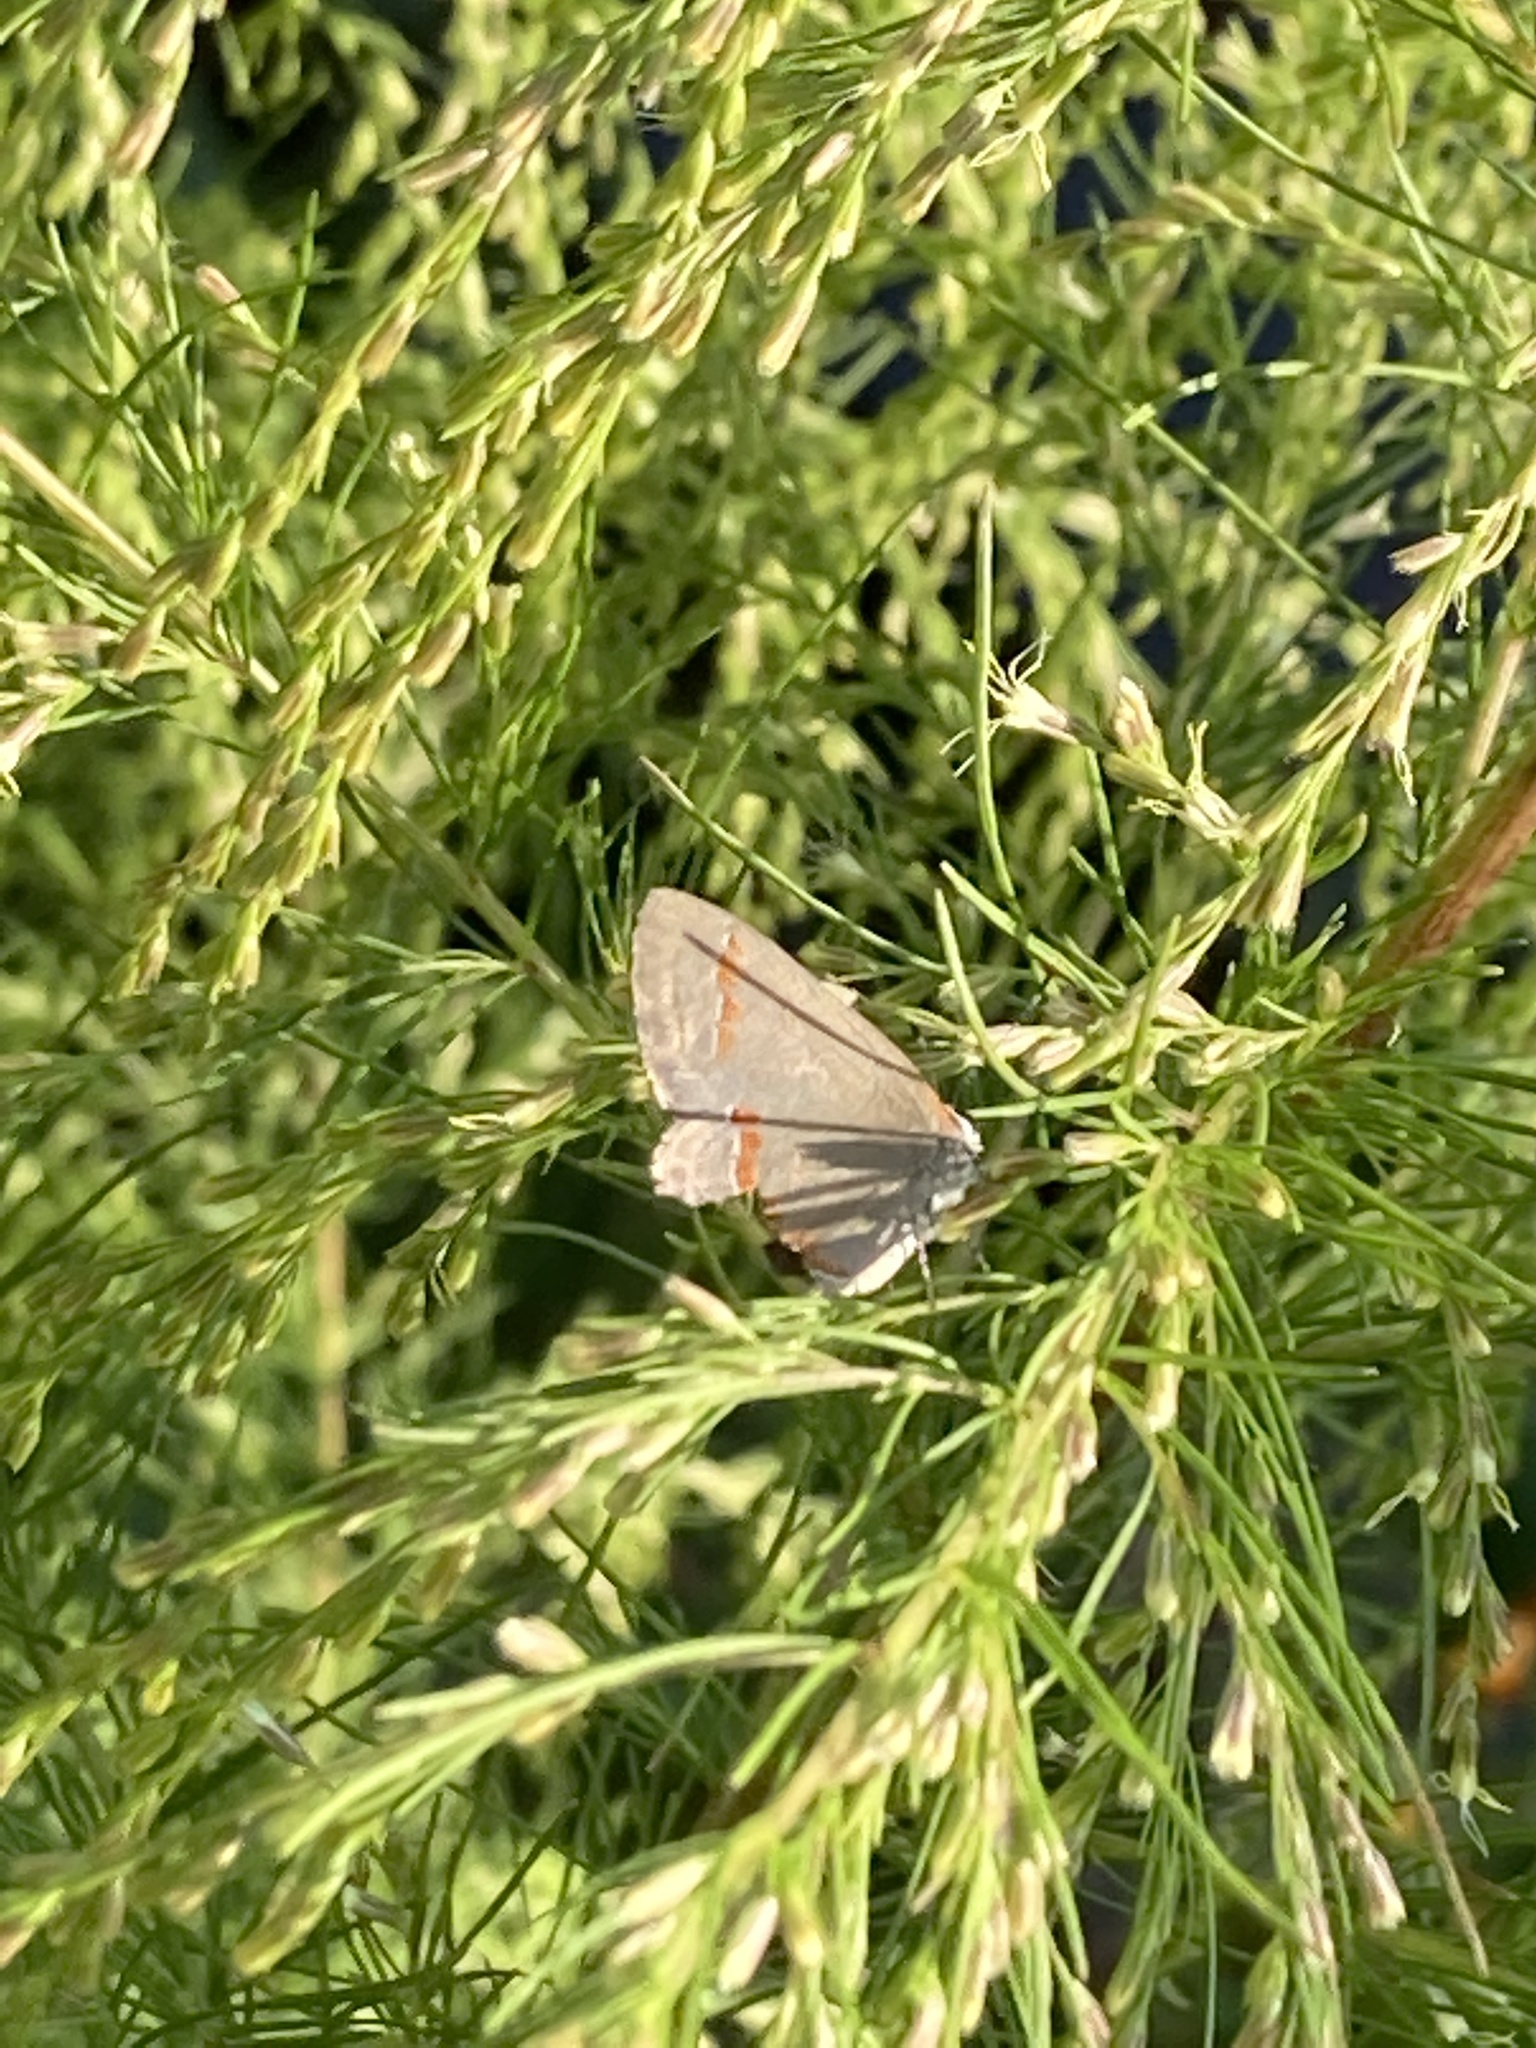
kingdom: Animalia
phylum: Arthropoda
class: Insecta
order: Lepidoptera
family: Lycaenidae
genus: Calycopis
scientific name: Calycopis cecrops
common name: Red-banded hairstreak
